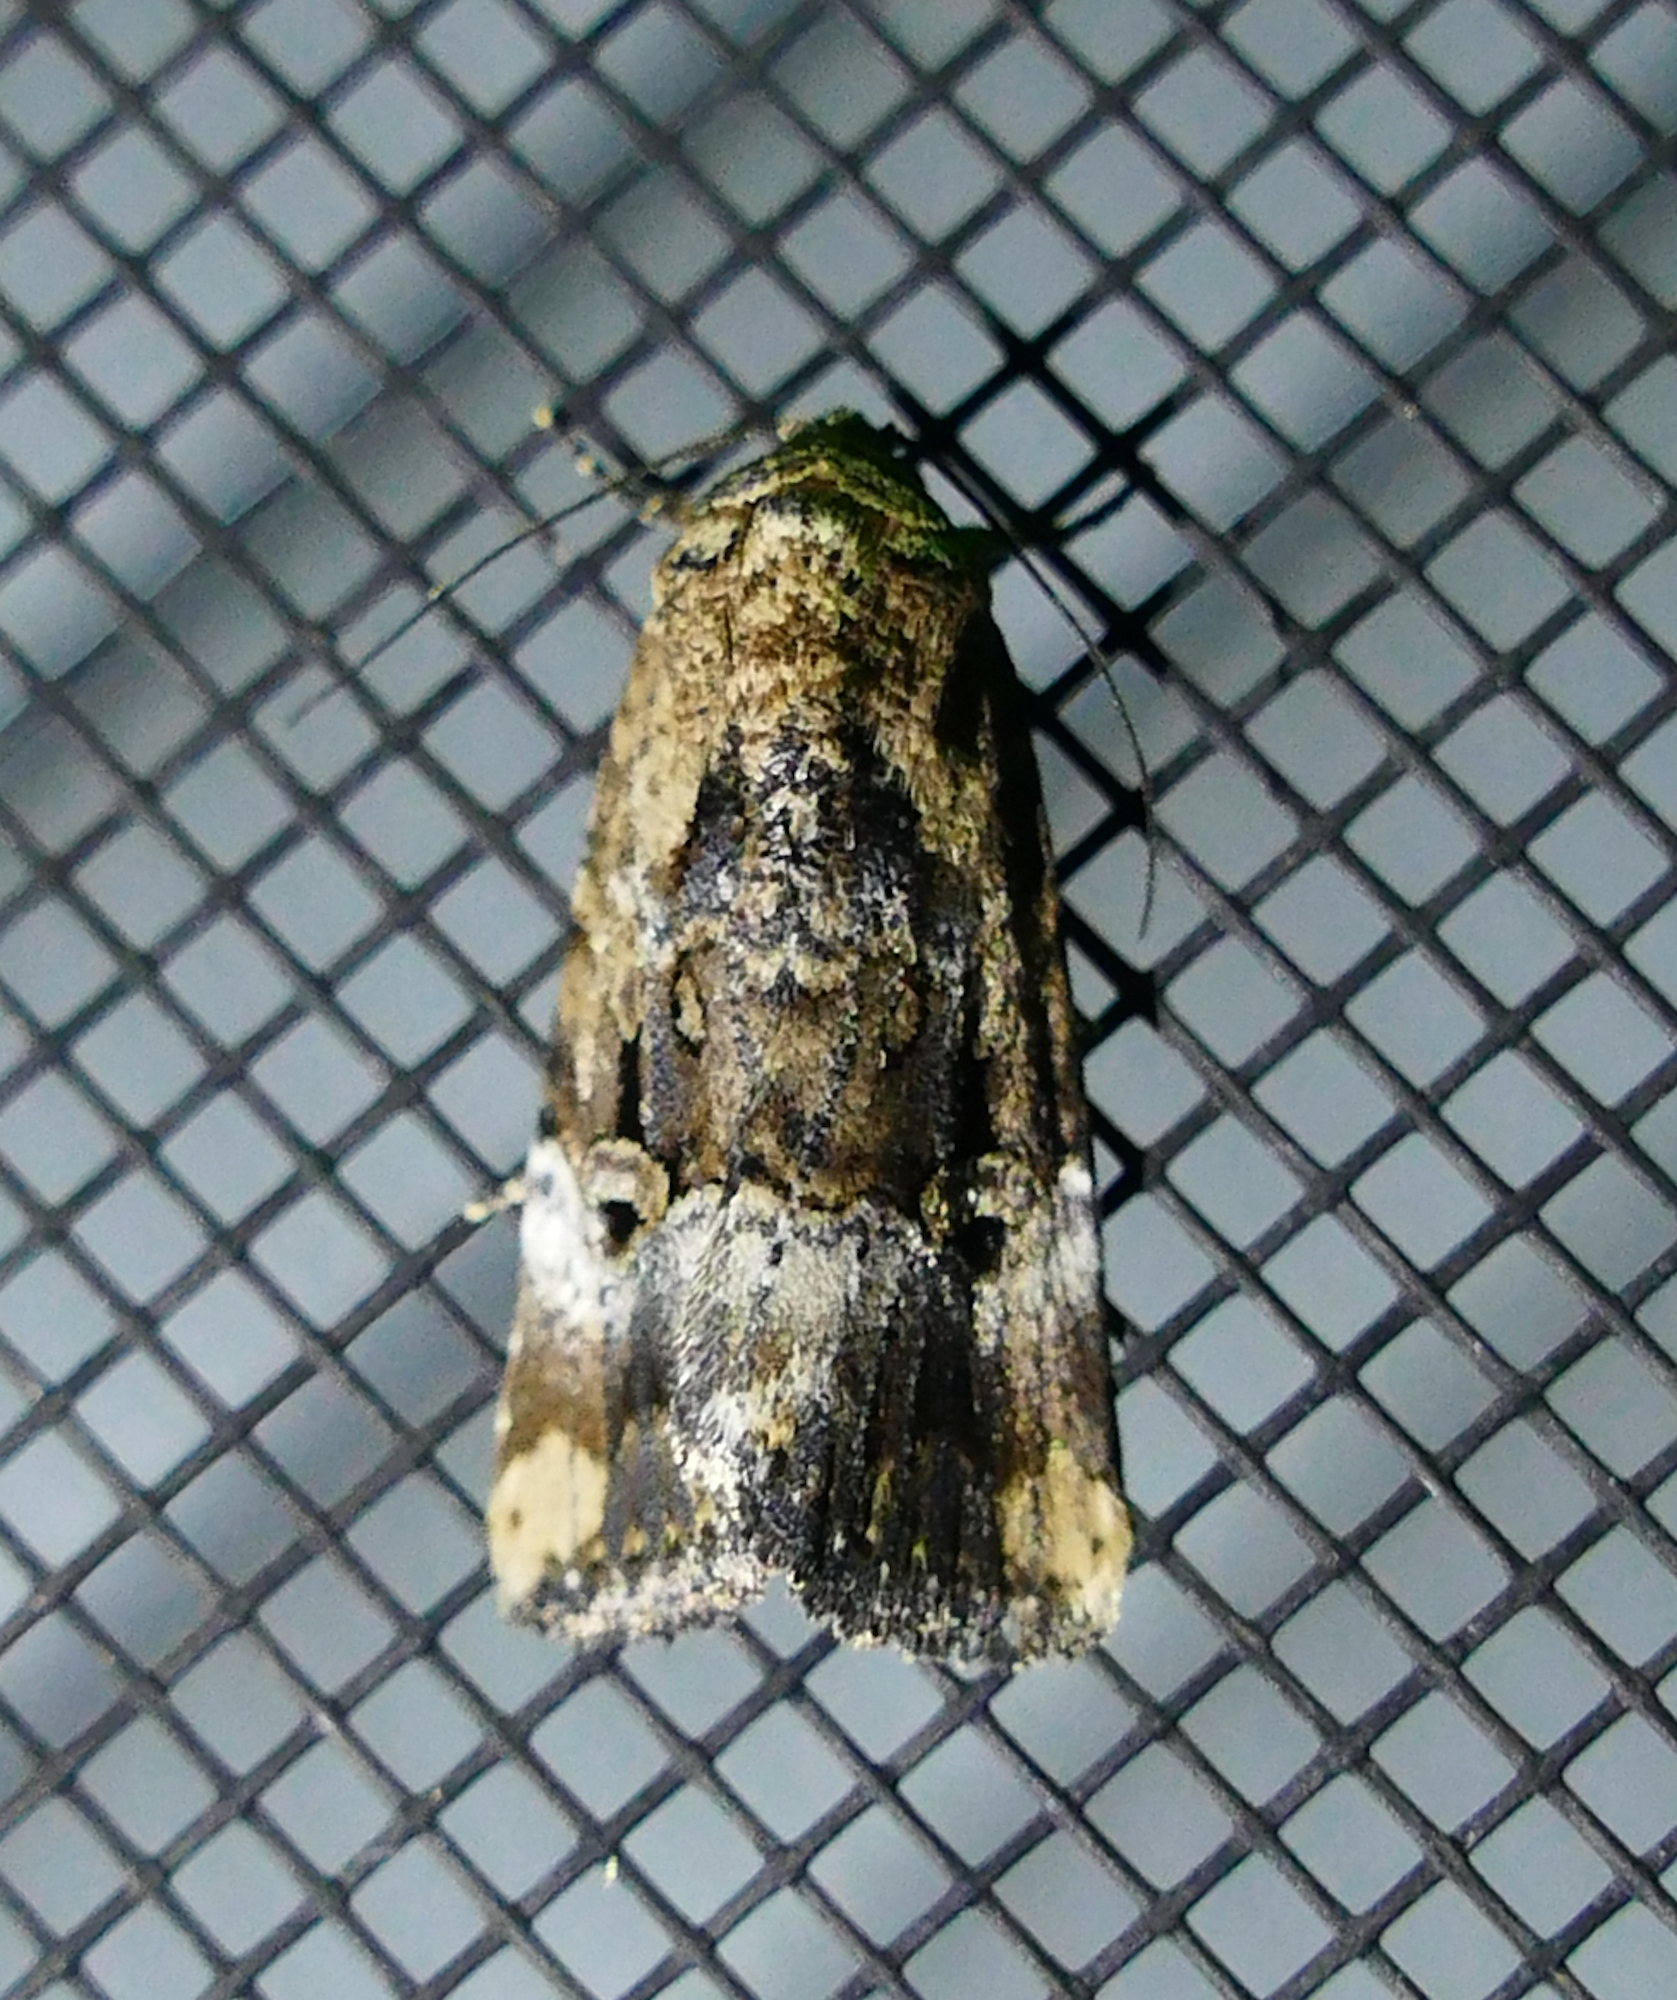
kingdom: Animalia
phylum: Arthropoda
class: Insecta
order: Lepidoptera
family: Noctuidae
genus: Elaphria
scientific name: Elaphria chalcedonia
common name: Chalcedony midget
